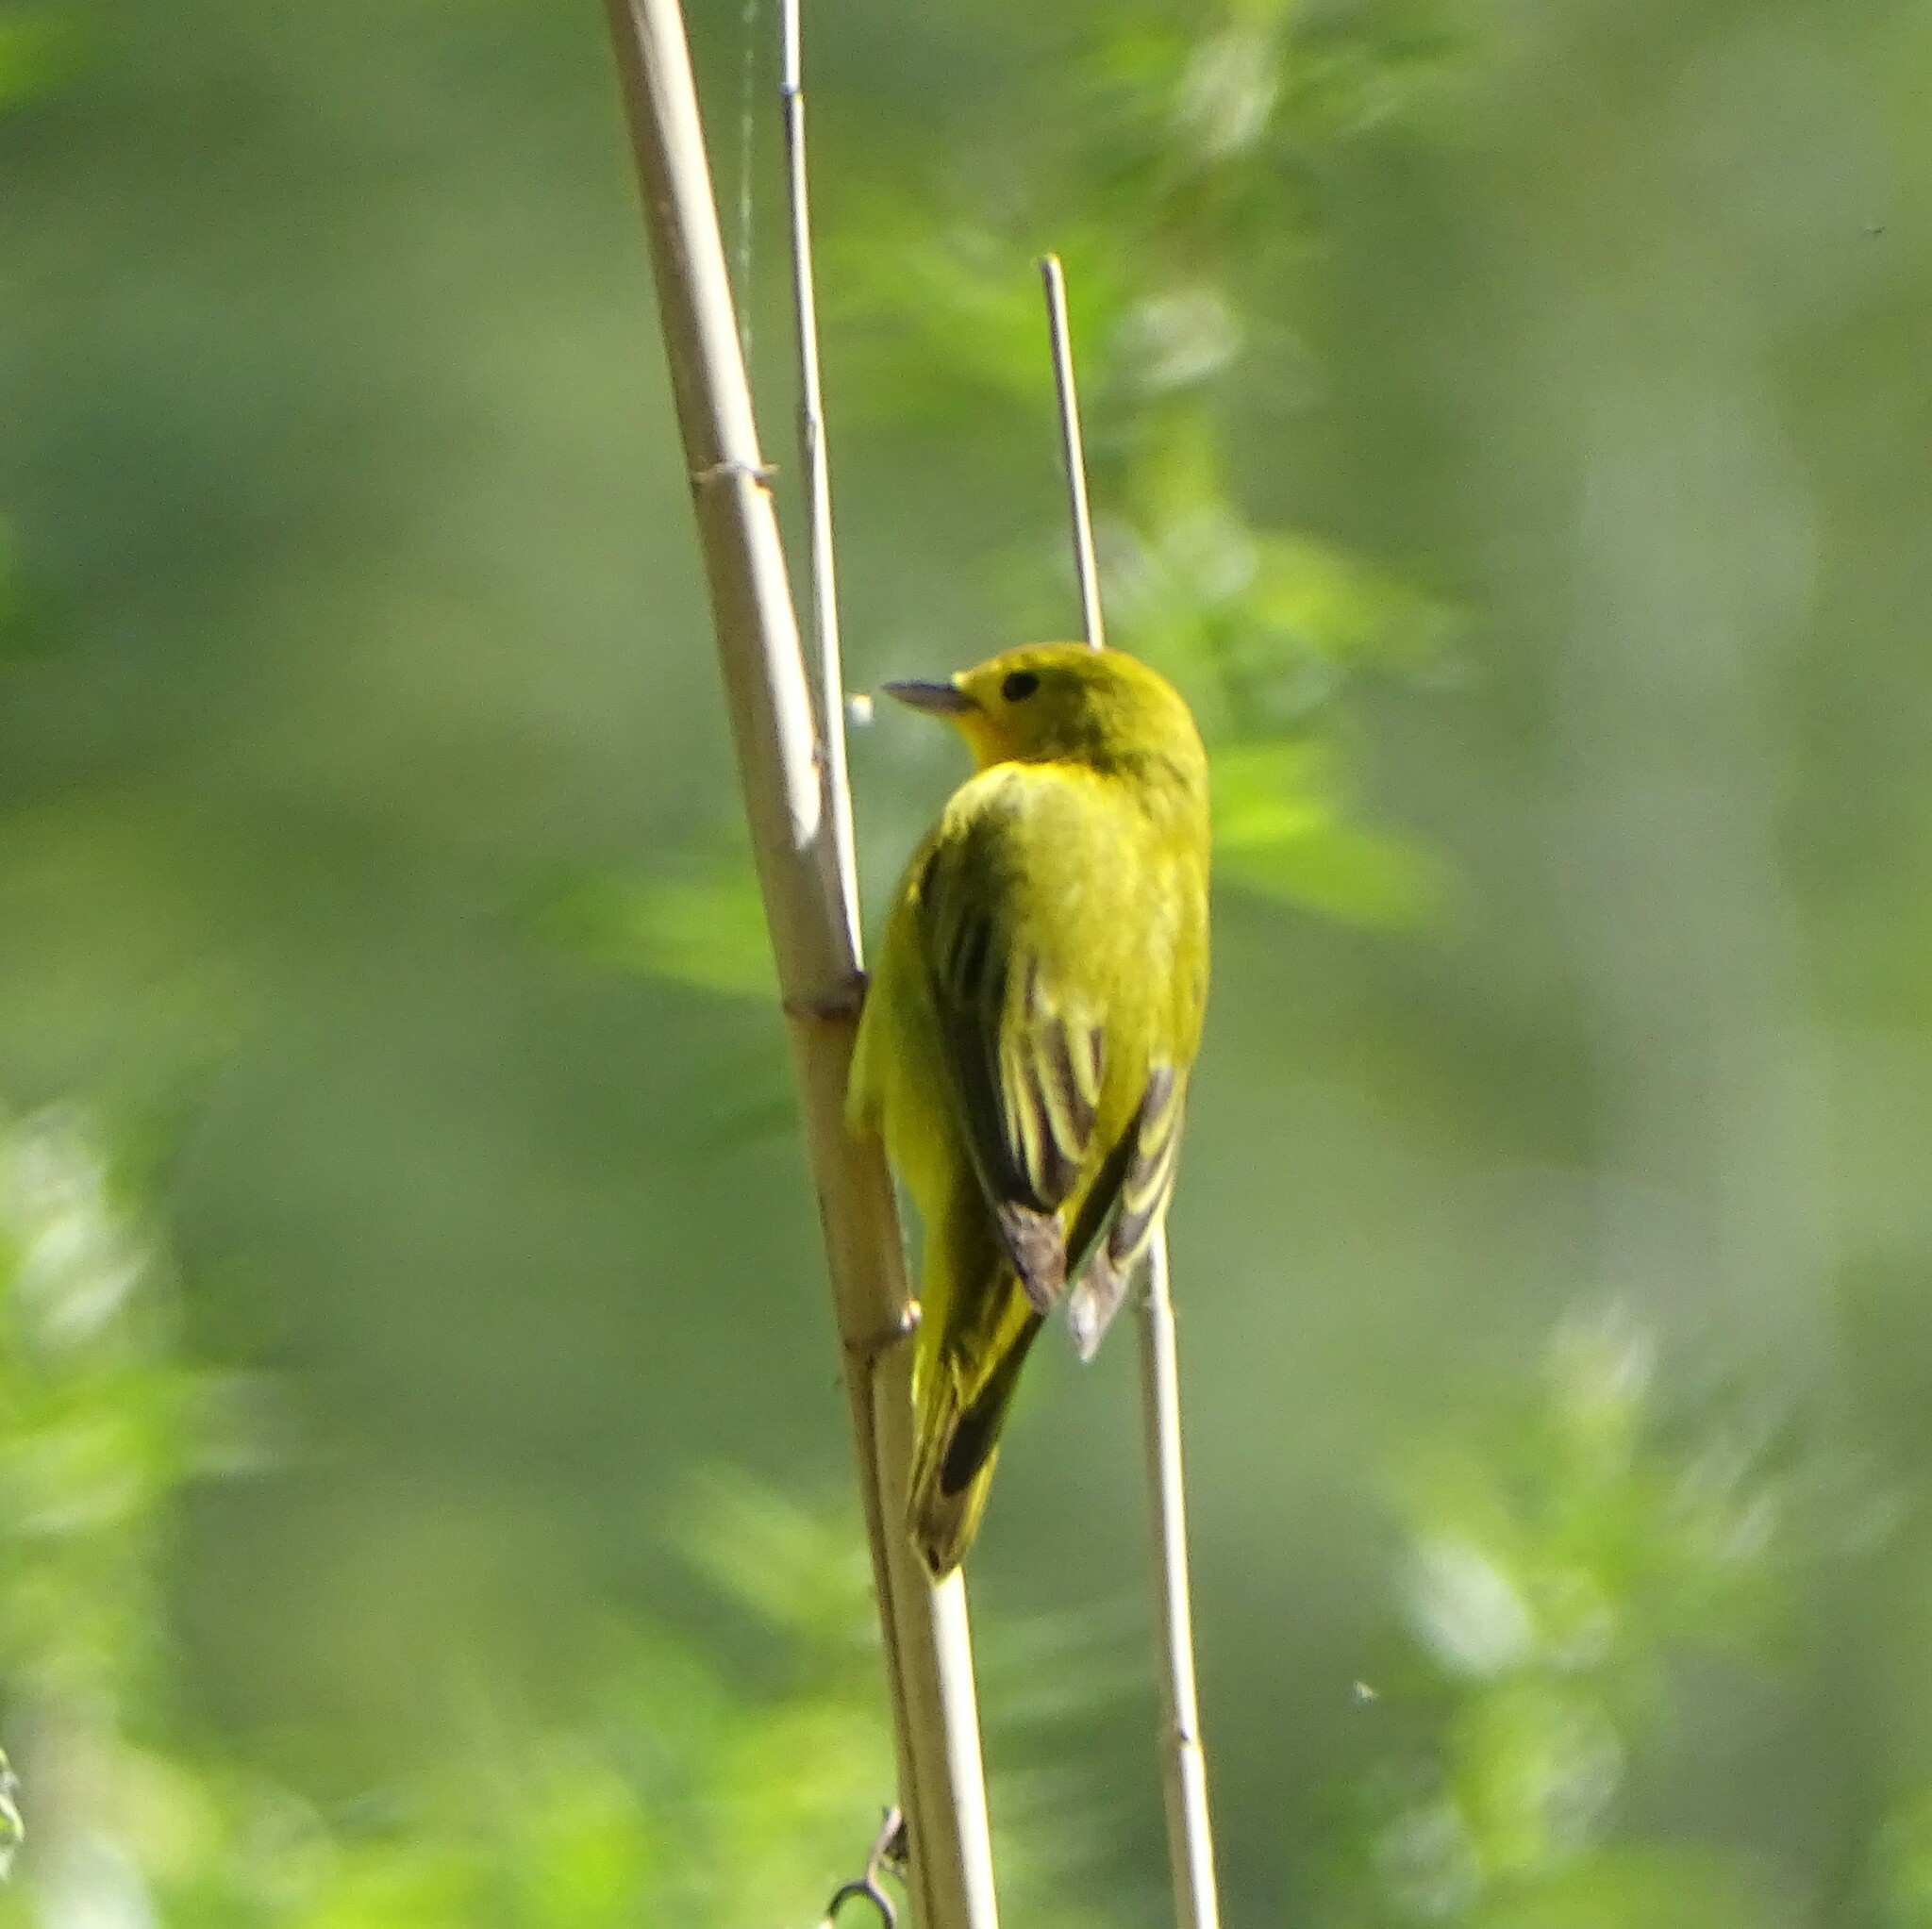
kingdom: Animalia
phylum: Chordata
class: Aves
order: Passeriformes
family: Parulidae
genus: Setophaga
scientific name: Setophaga petechia
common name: Yellow warbler
